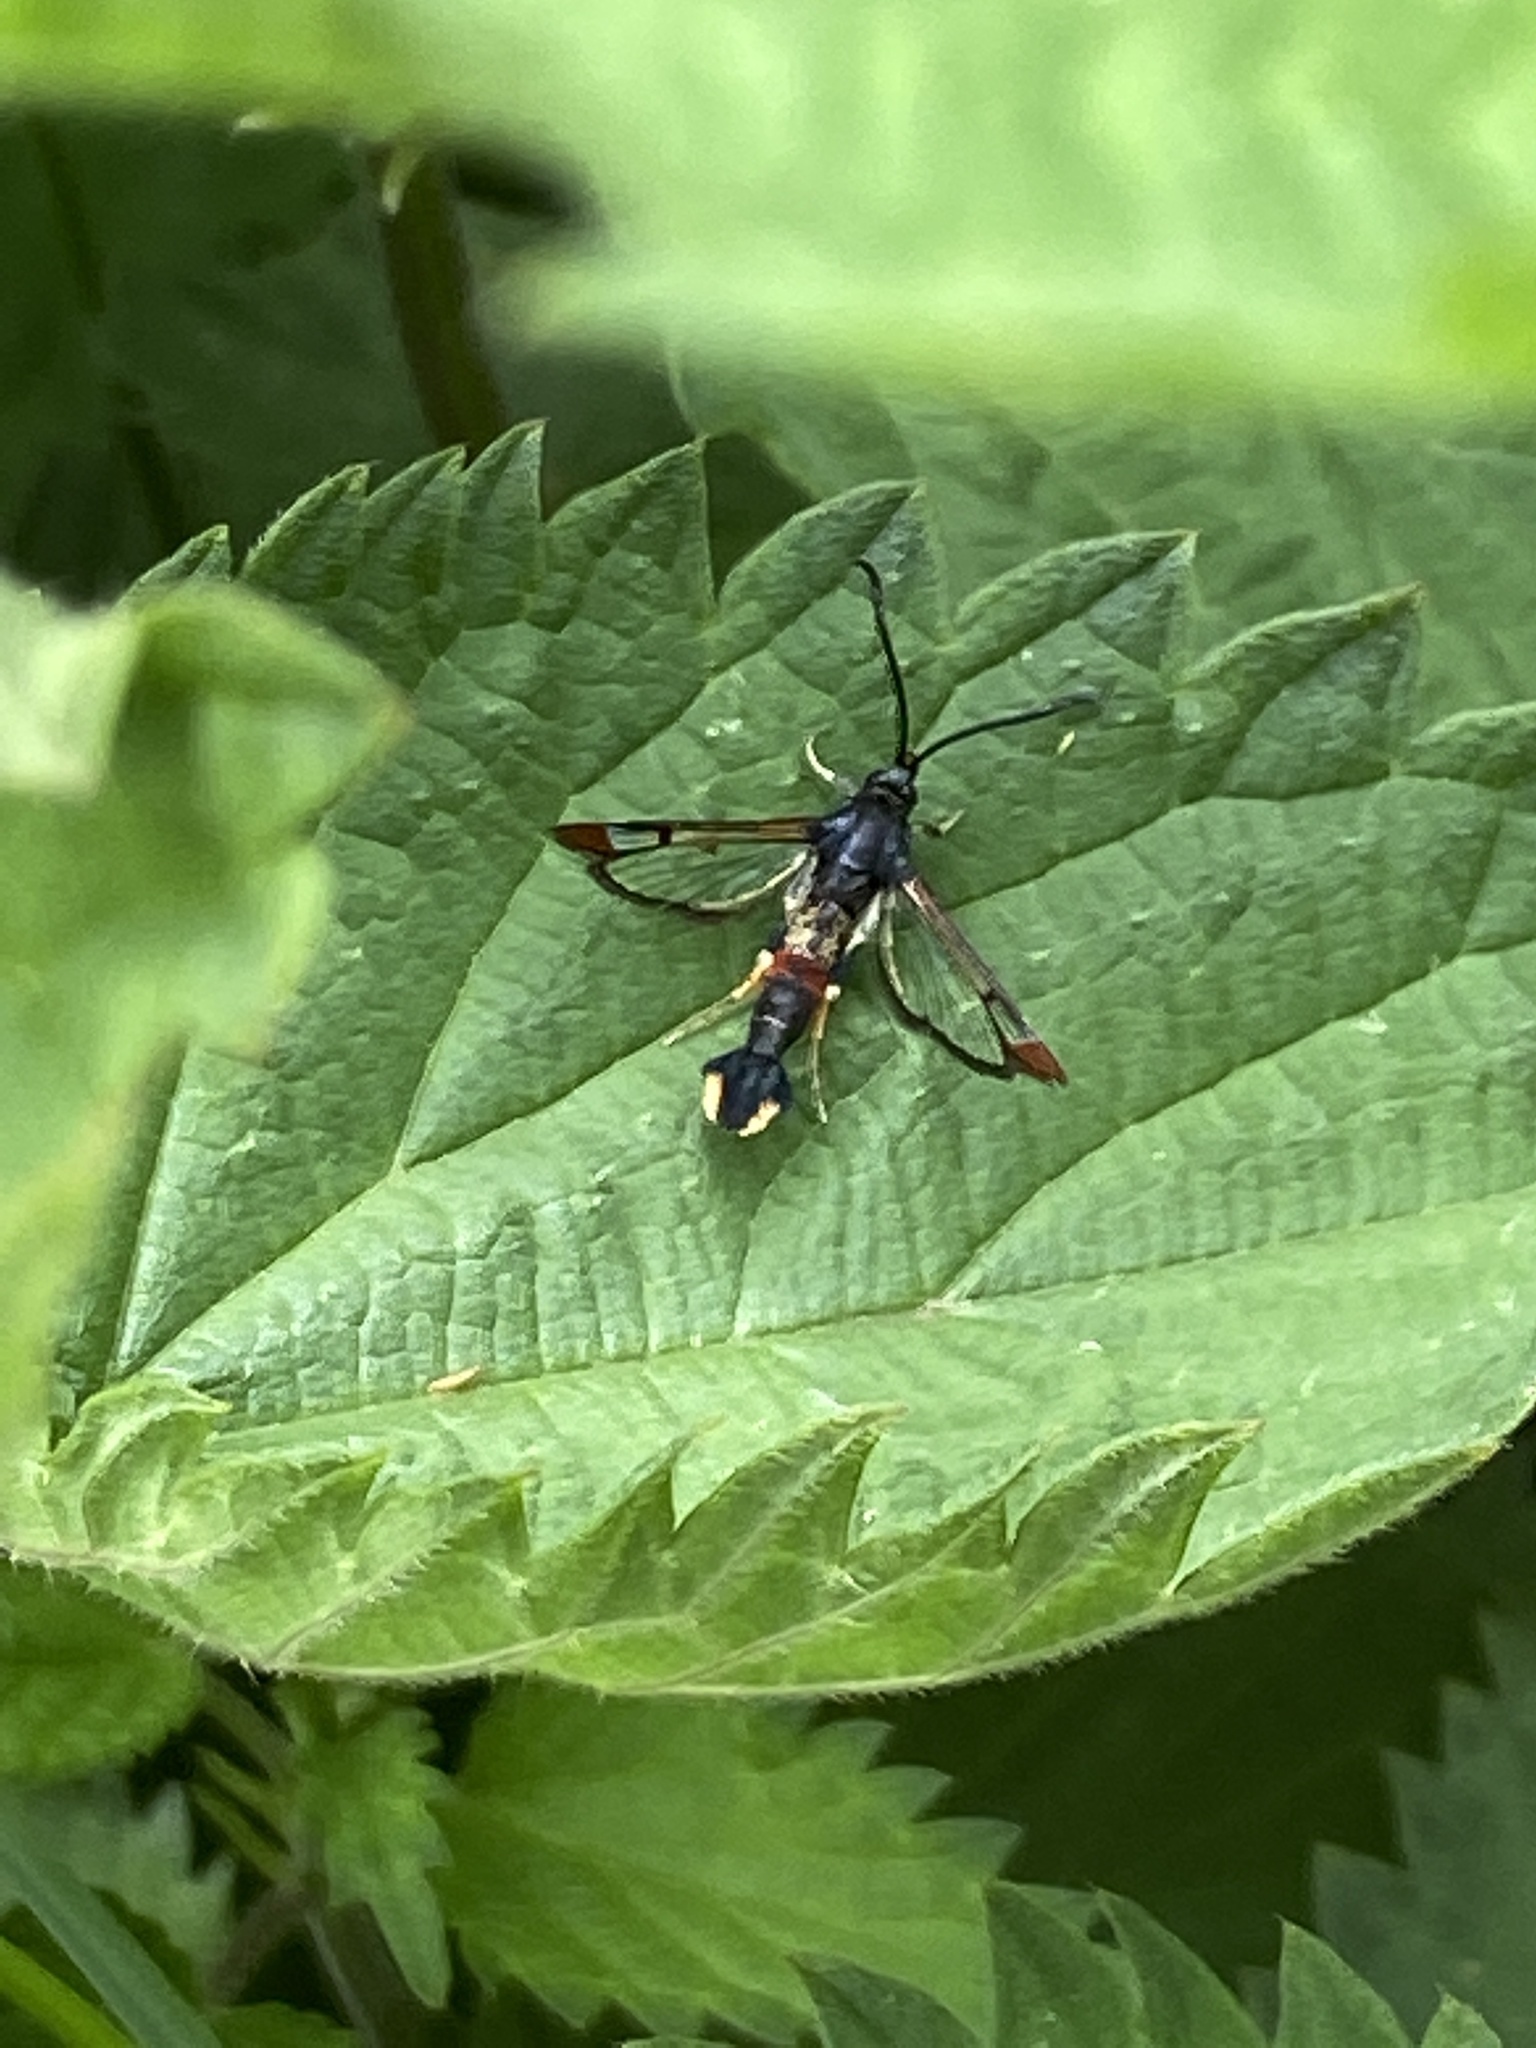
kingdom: Animalia
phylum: Arthropoda
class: Insecta
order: Lepidoptera
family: Sesiidae
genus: Synanthedon
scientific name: Synanthedon formicaeformis
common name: Red-tipped clearwing
